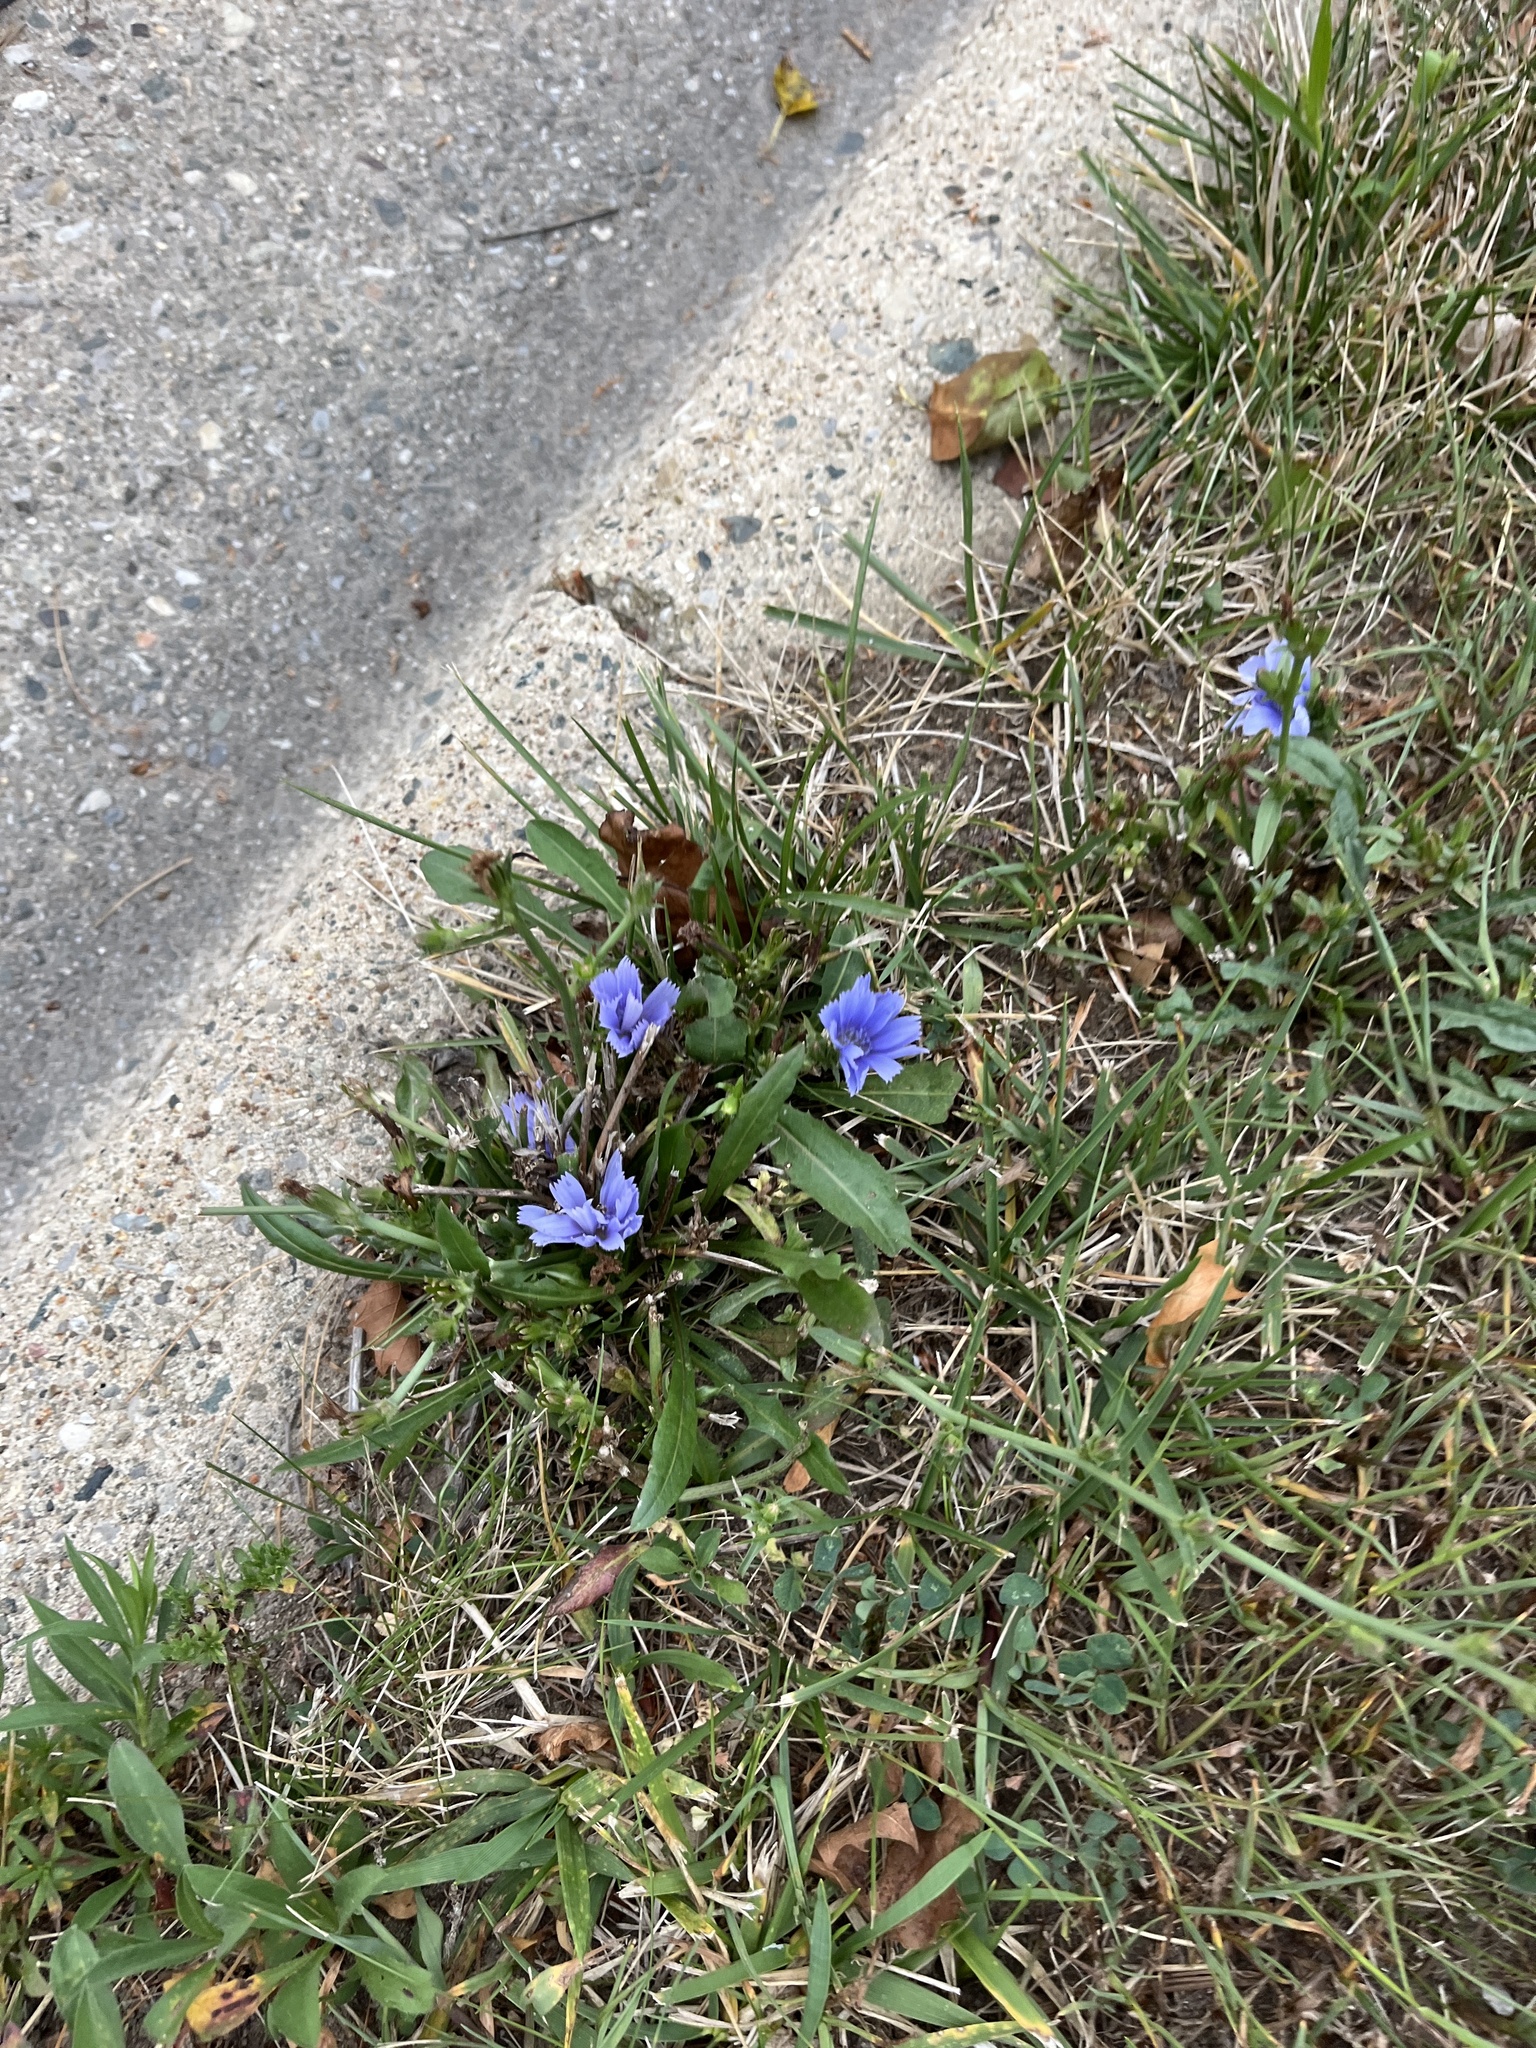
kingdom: Plantae
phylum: Tracheophyta
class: Magnoliopsida
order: Asterales
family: Asteraceae
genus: Cichorium
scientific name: Cichorium intybus
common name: Chicory
